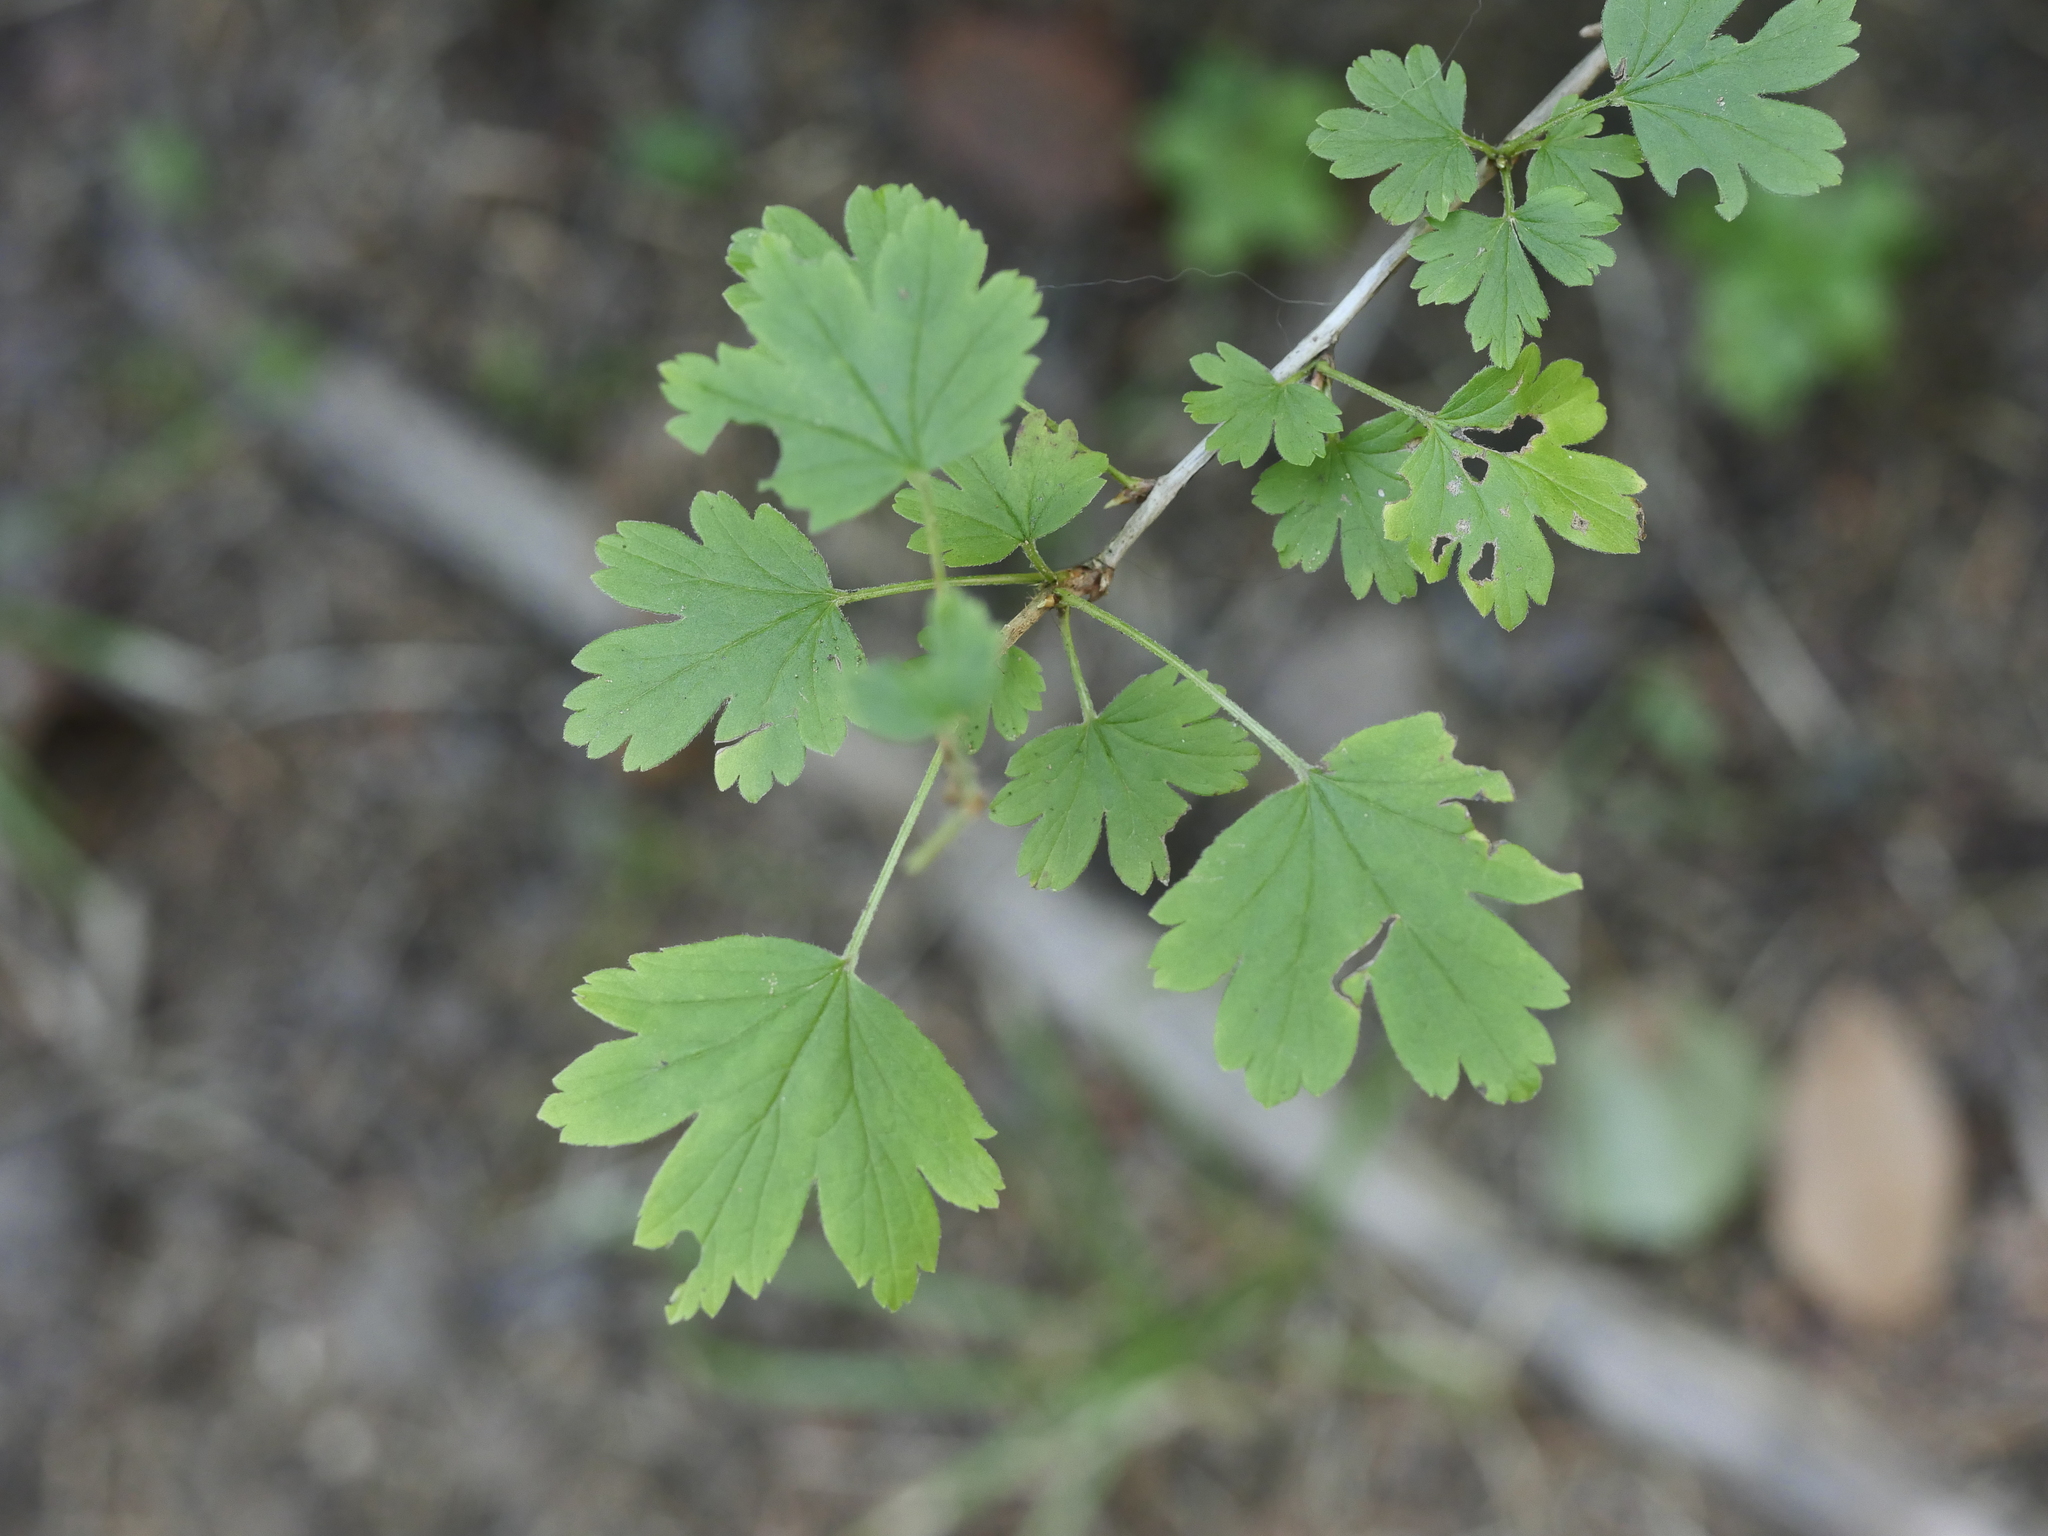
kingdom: Plantae
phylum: Tracheophyta
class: Magnoliopsida
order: Saxifragales
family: Grossulariaceae
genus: Ribes
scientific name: Ribes hirtellum
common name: Hairy gooseberry
